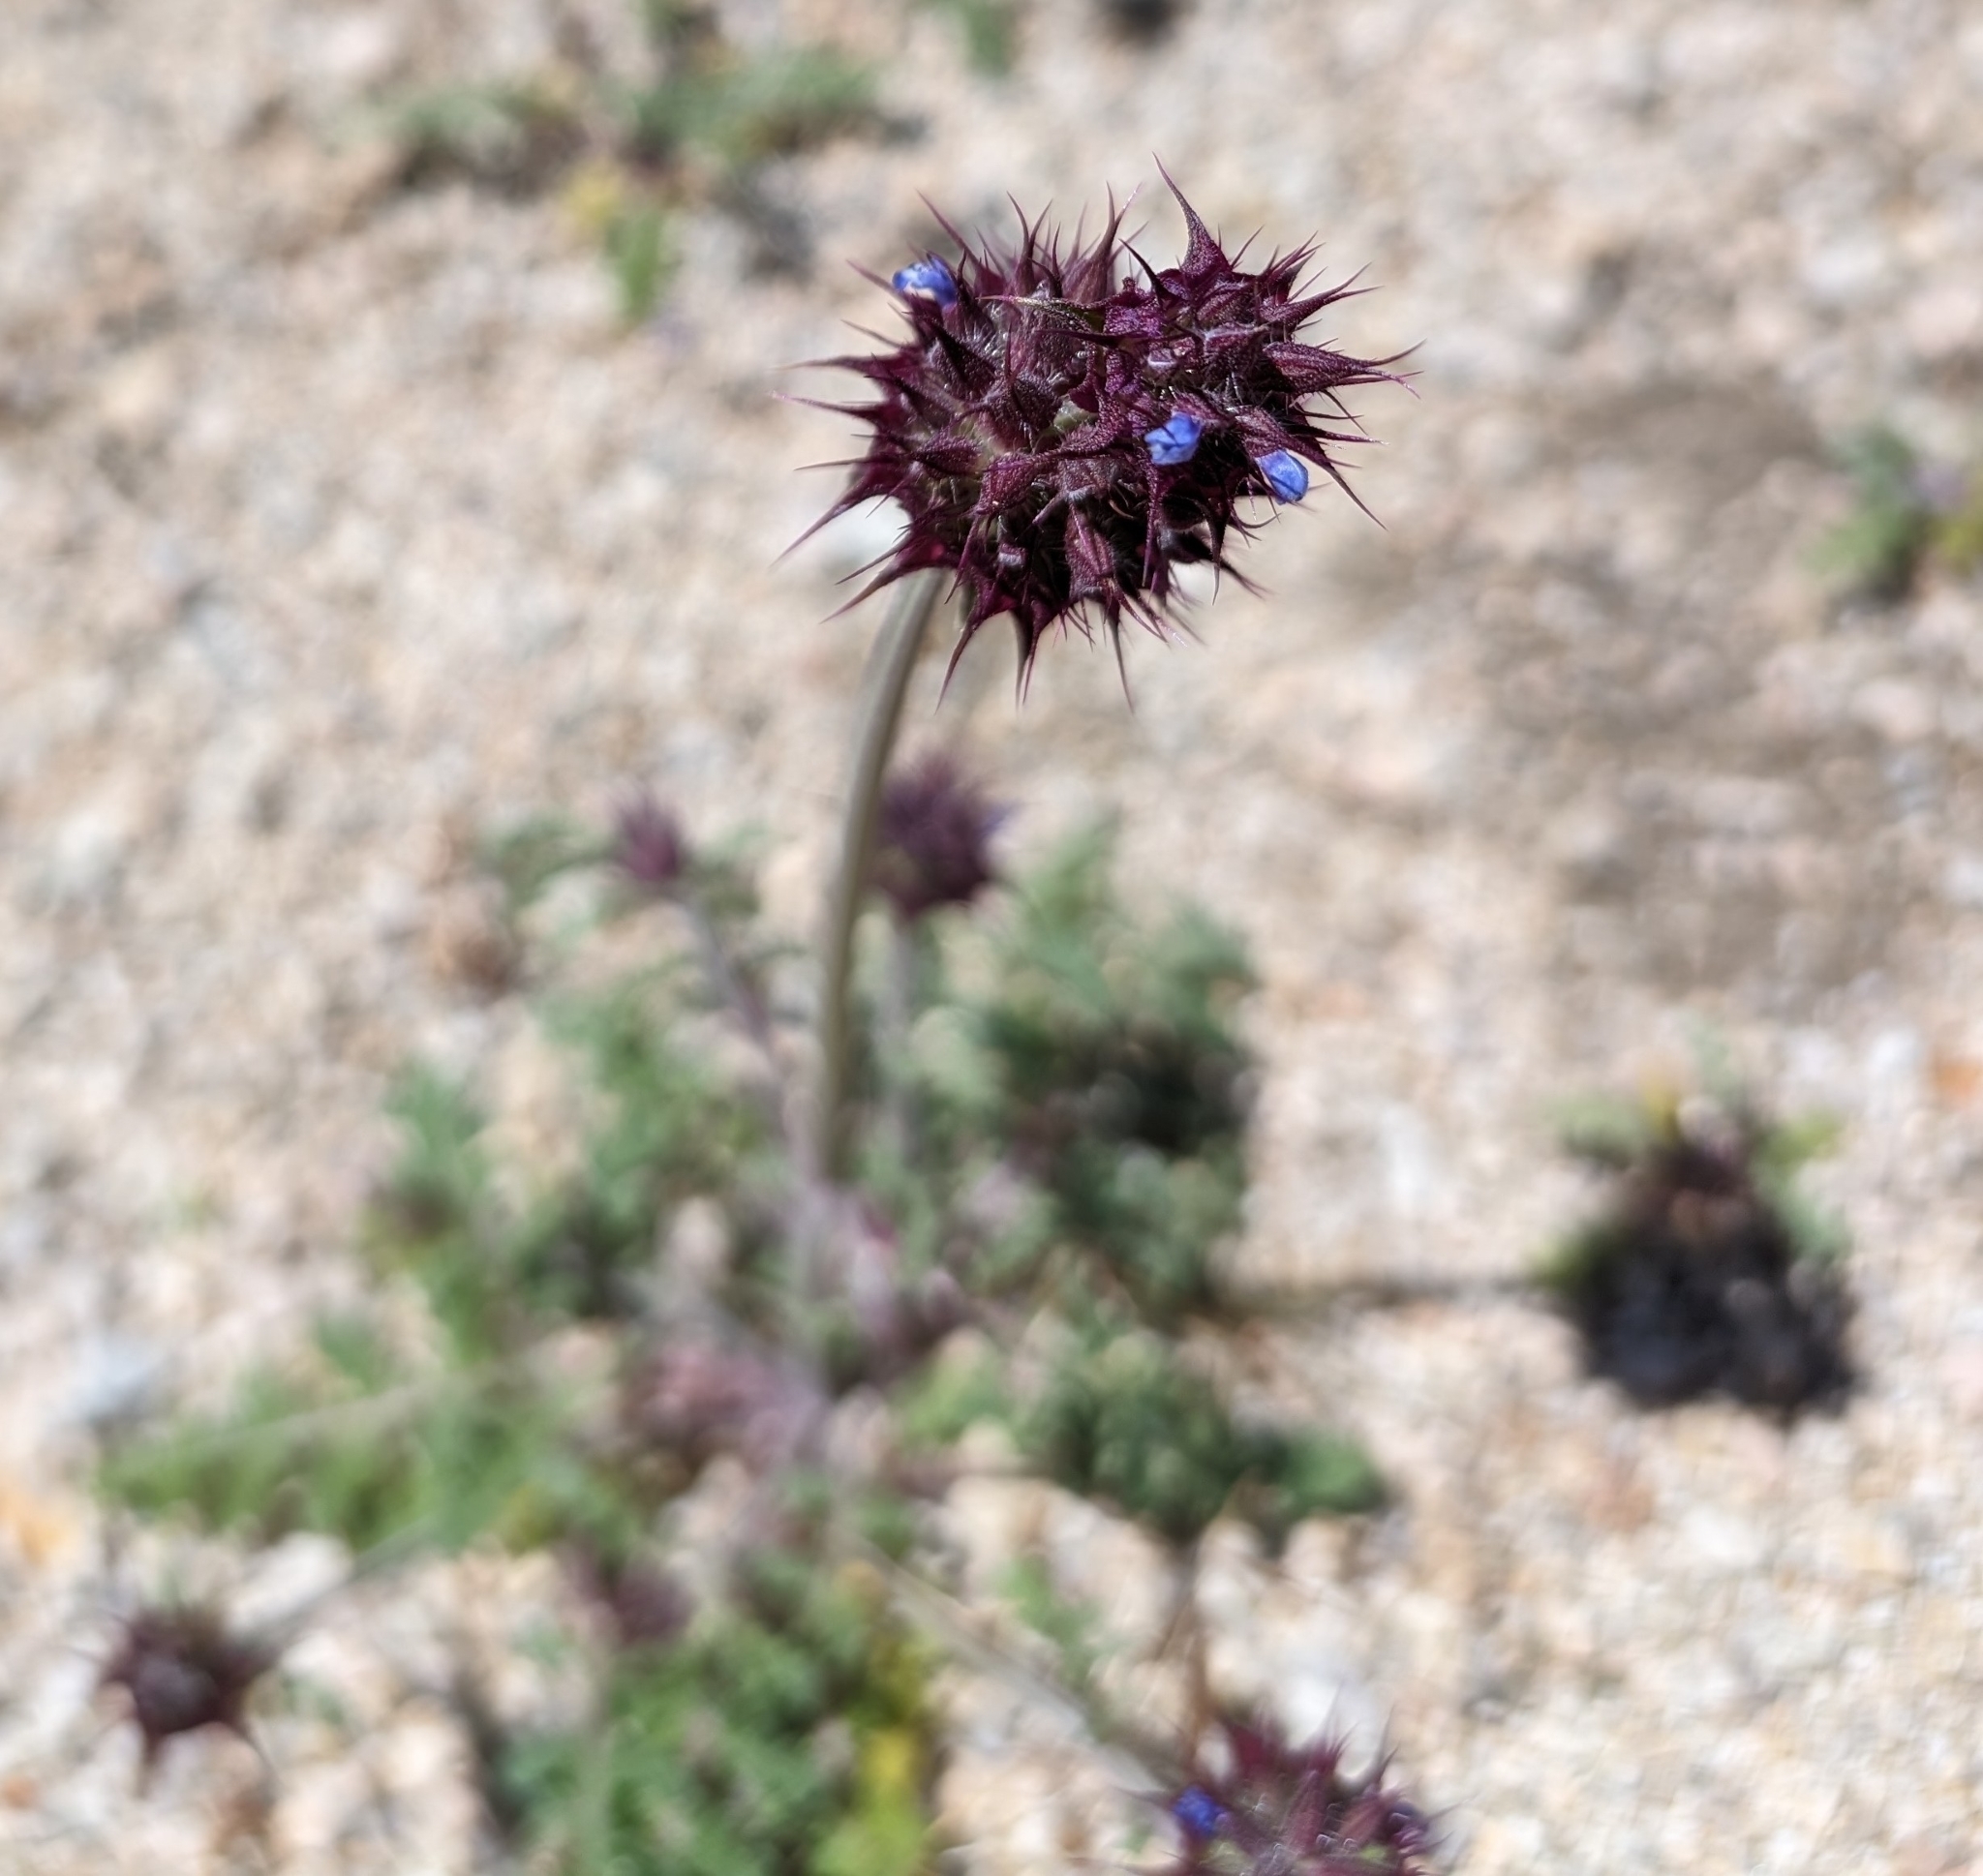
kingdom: Plantae
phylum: Tracheophyta
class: Magnoliopsida
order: Lamiales
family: Lamiaceae
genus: Salvia
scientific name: Salvia columbariae
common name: Chia
